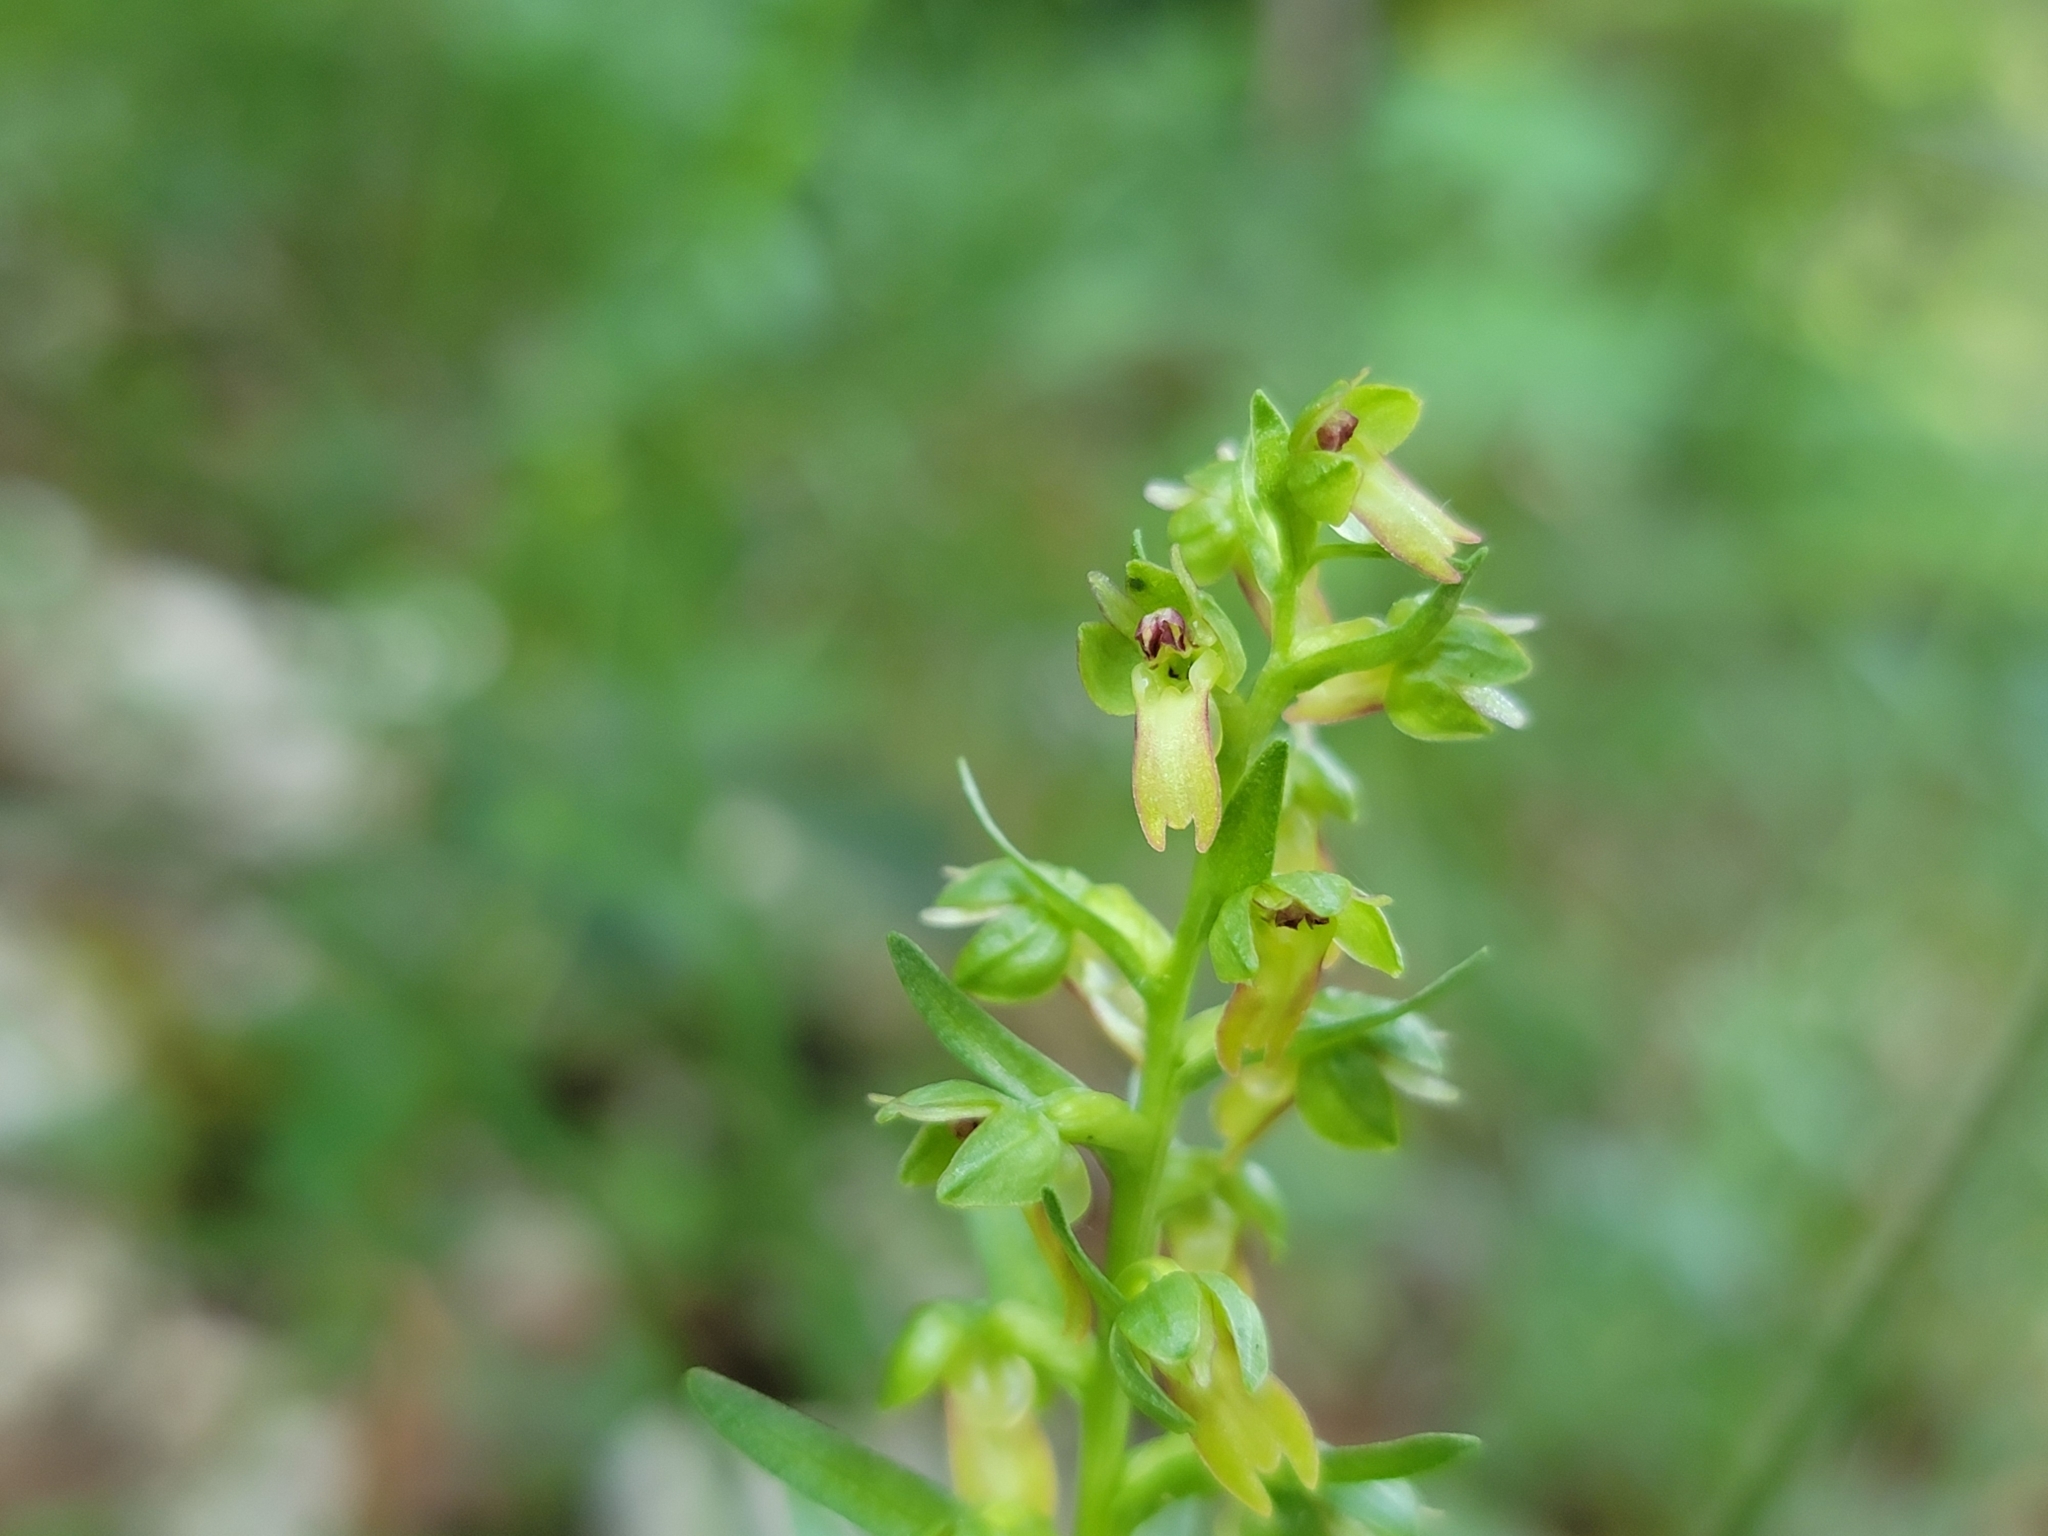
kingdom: Plantae
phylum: Tracheophyta
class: Liliopsida
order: Asparagales
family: Orchidaceae
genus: Dactylorhiza
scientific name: Dactylorhiza viridis
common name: Longbract frog orchid
